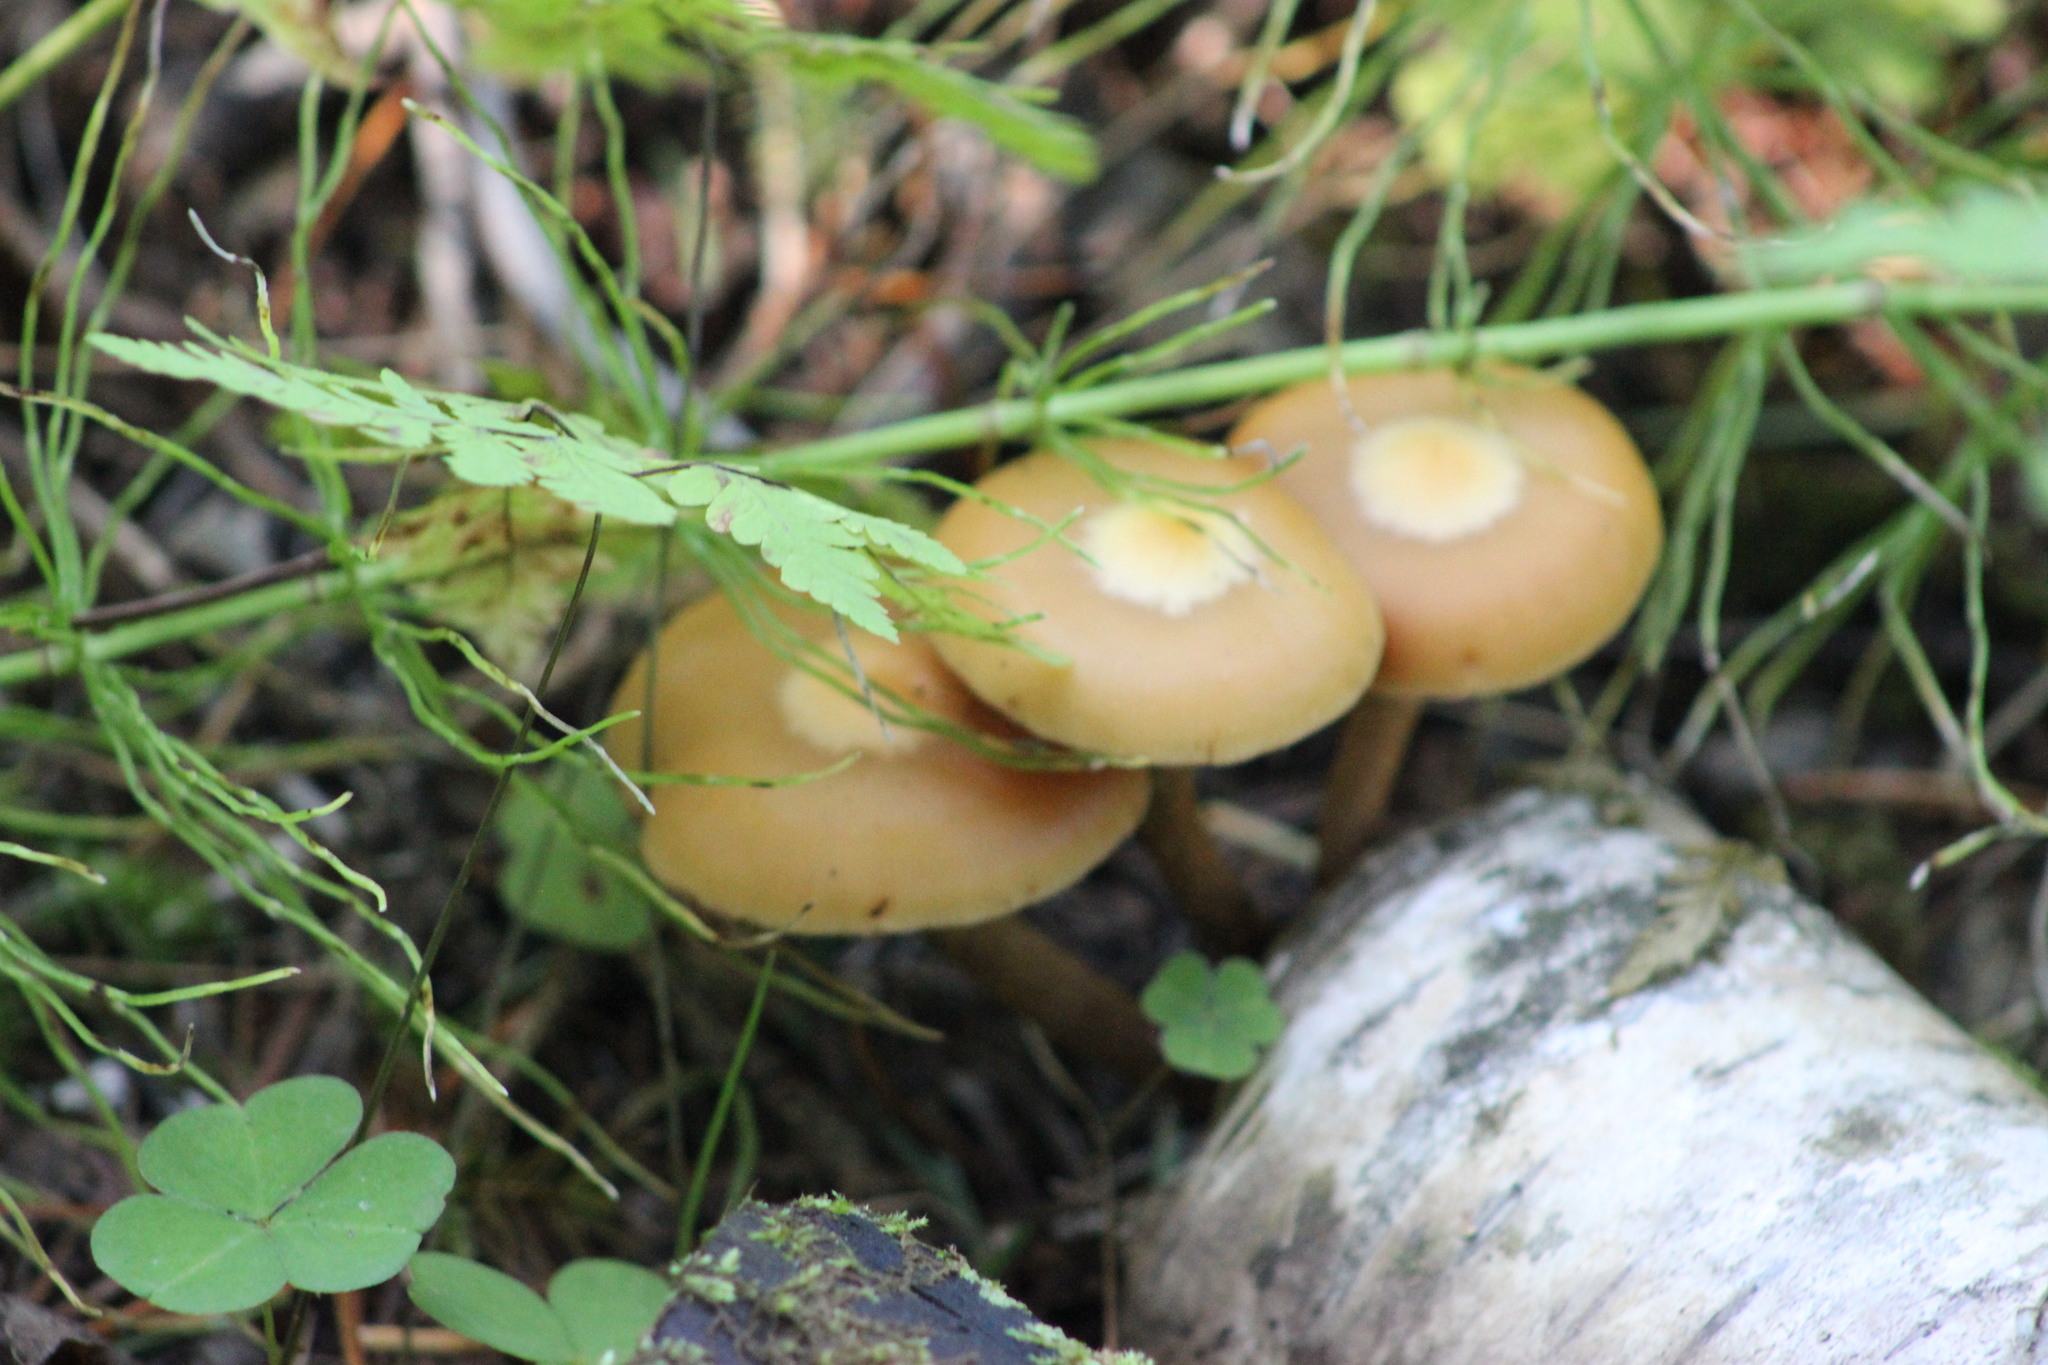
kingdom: Fungi
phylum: Basidiomycota
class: Agaricomycetes
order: Agaricales
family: Strophariaceae
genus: Kuehneromyces
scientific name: Kuehneromyces mutabilis
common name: Sheathed woodtuft
